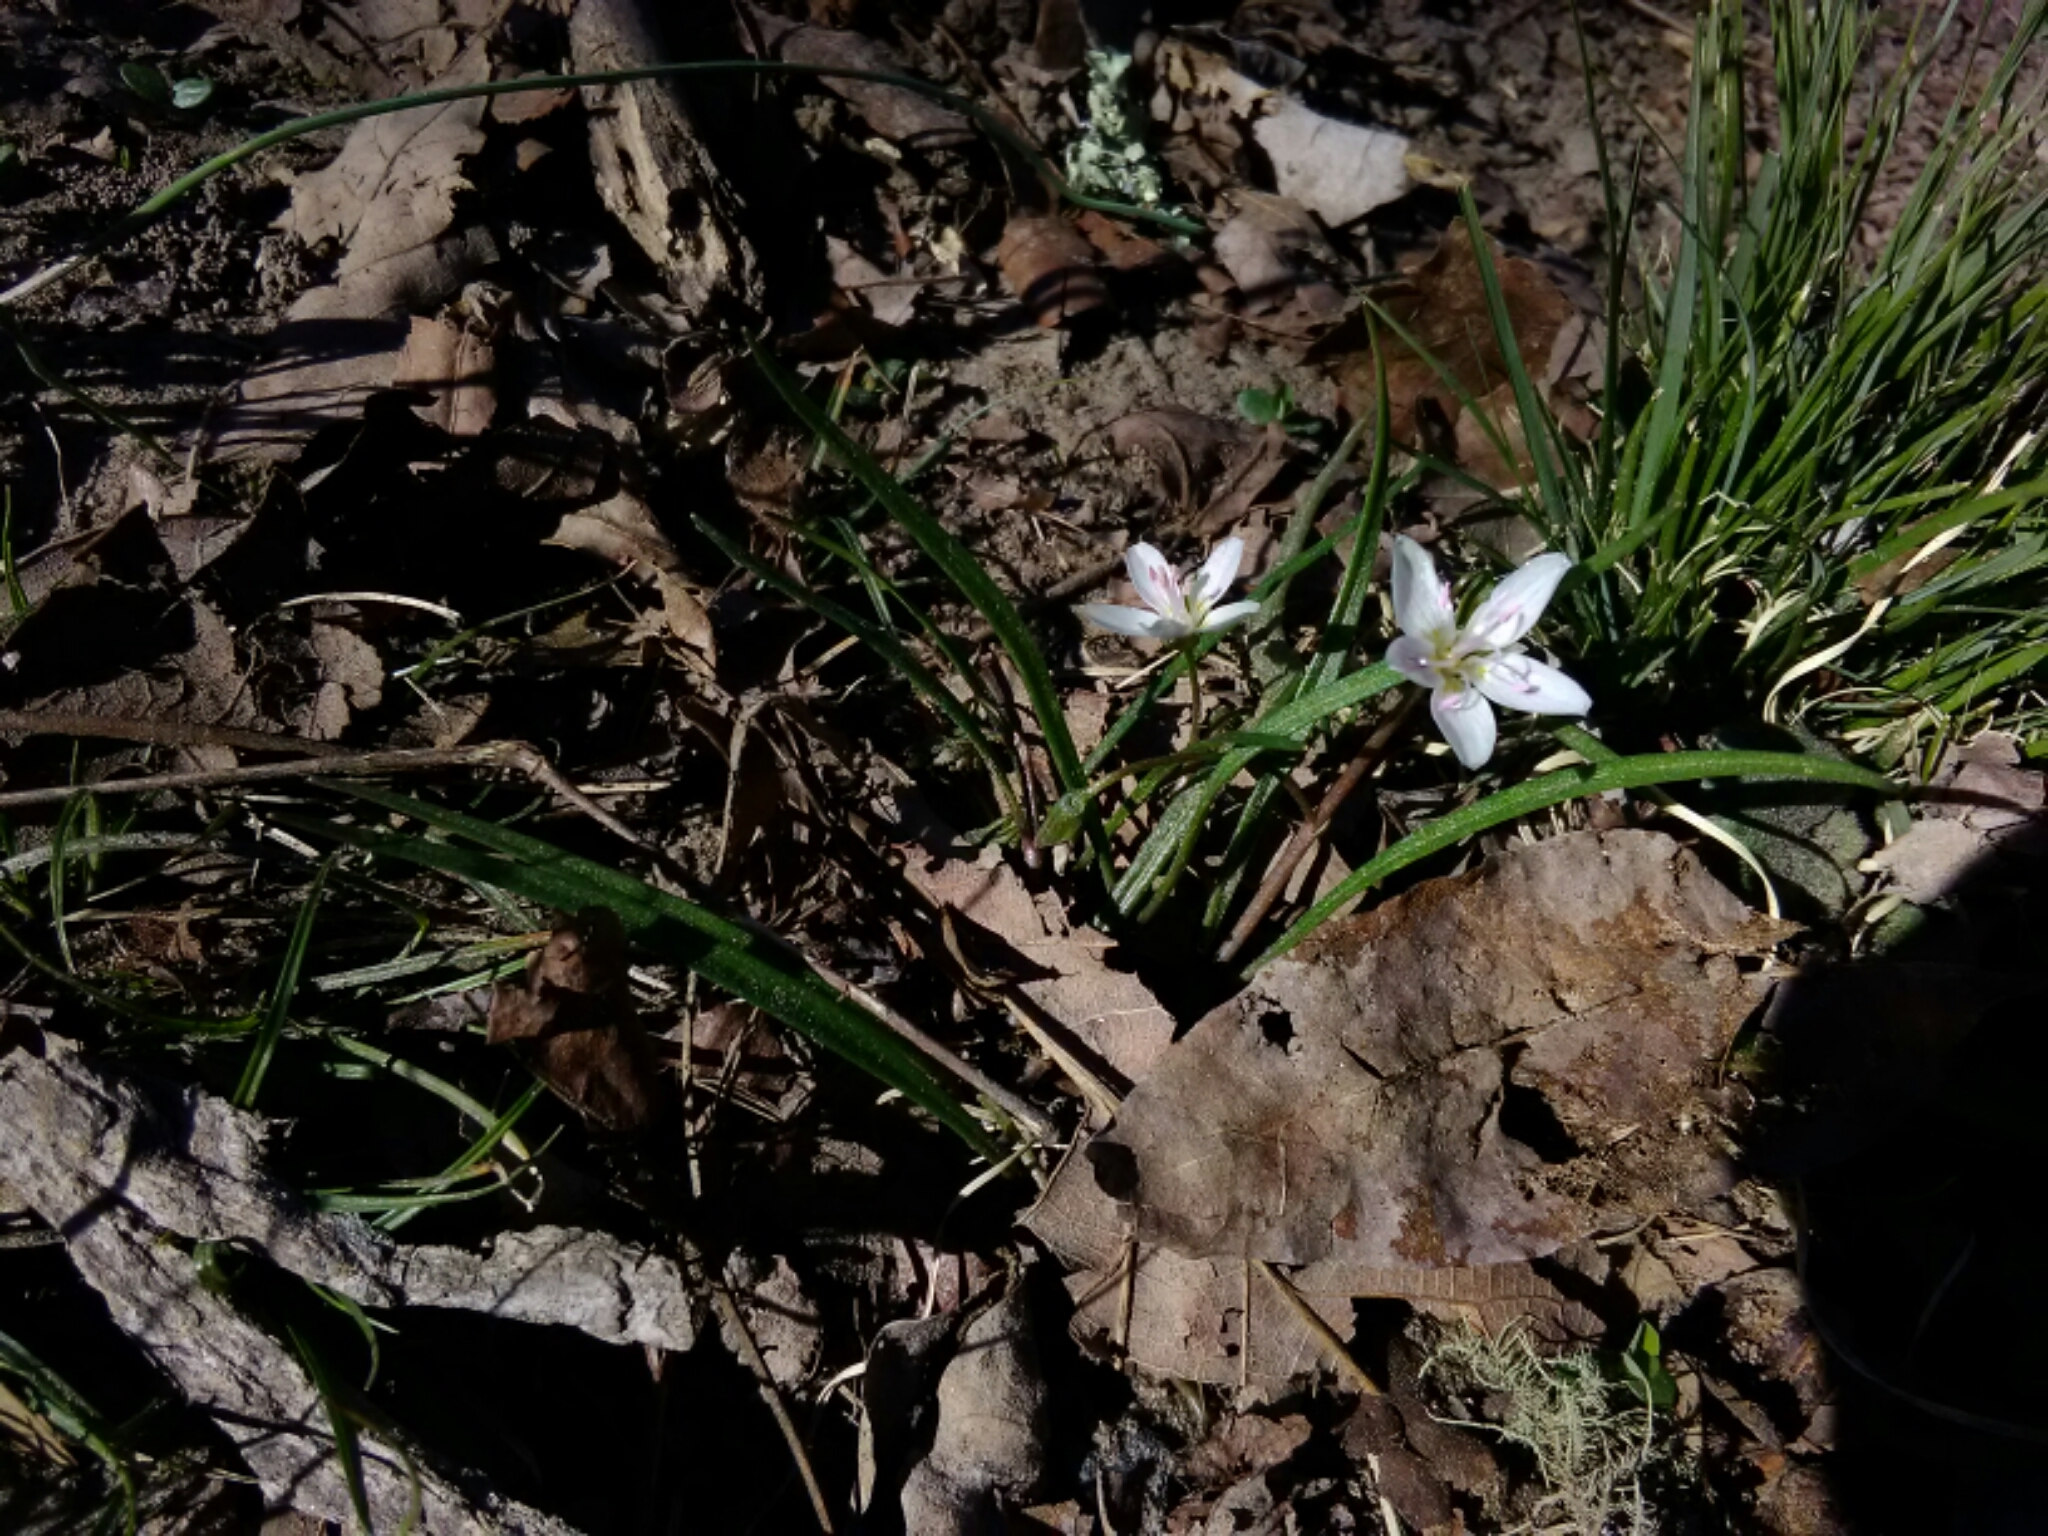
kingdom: Plantae
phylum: Tracheophyta
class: Magnoliopsida
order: Caryophyllales
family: Montiaceae
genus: Claytonia
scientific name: Claytonia virginica
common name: Virginia springbeauty
